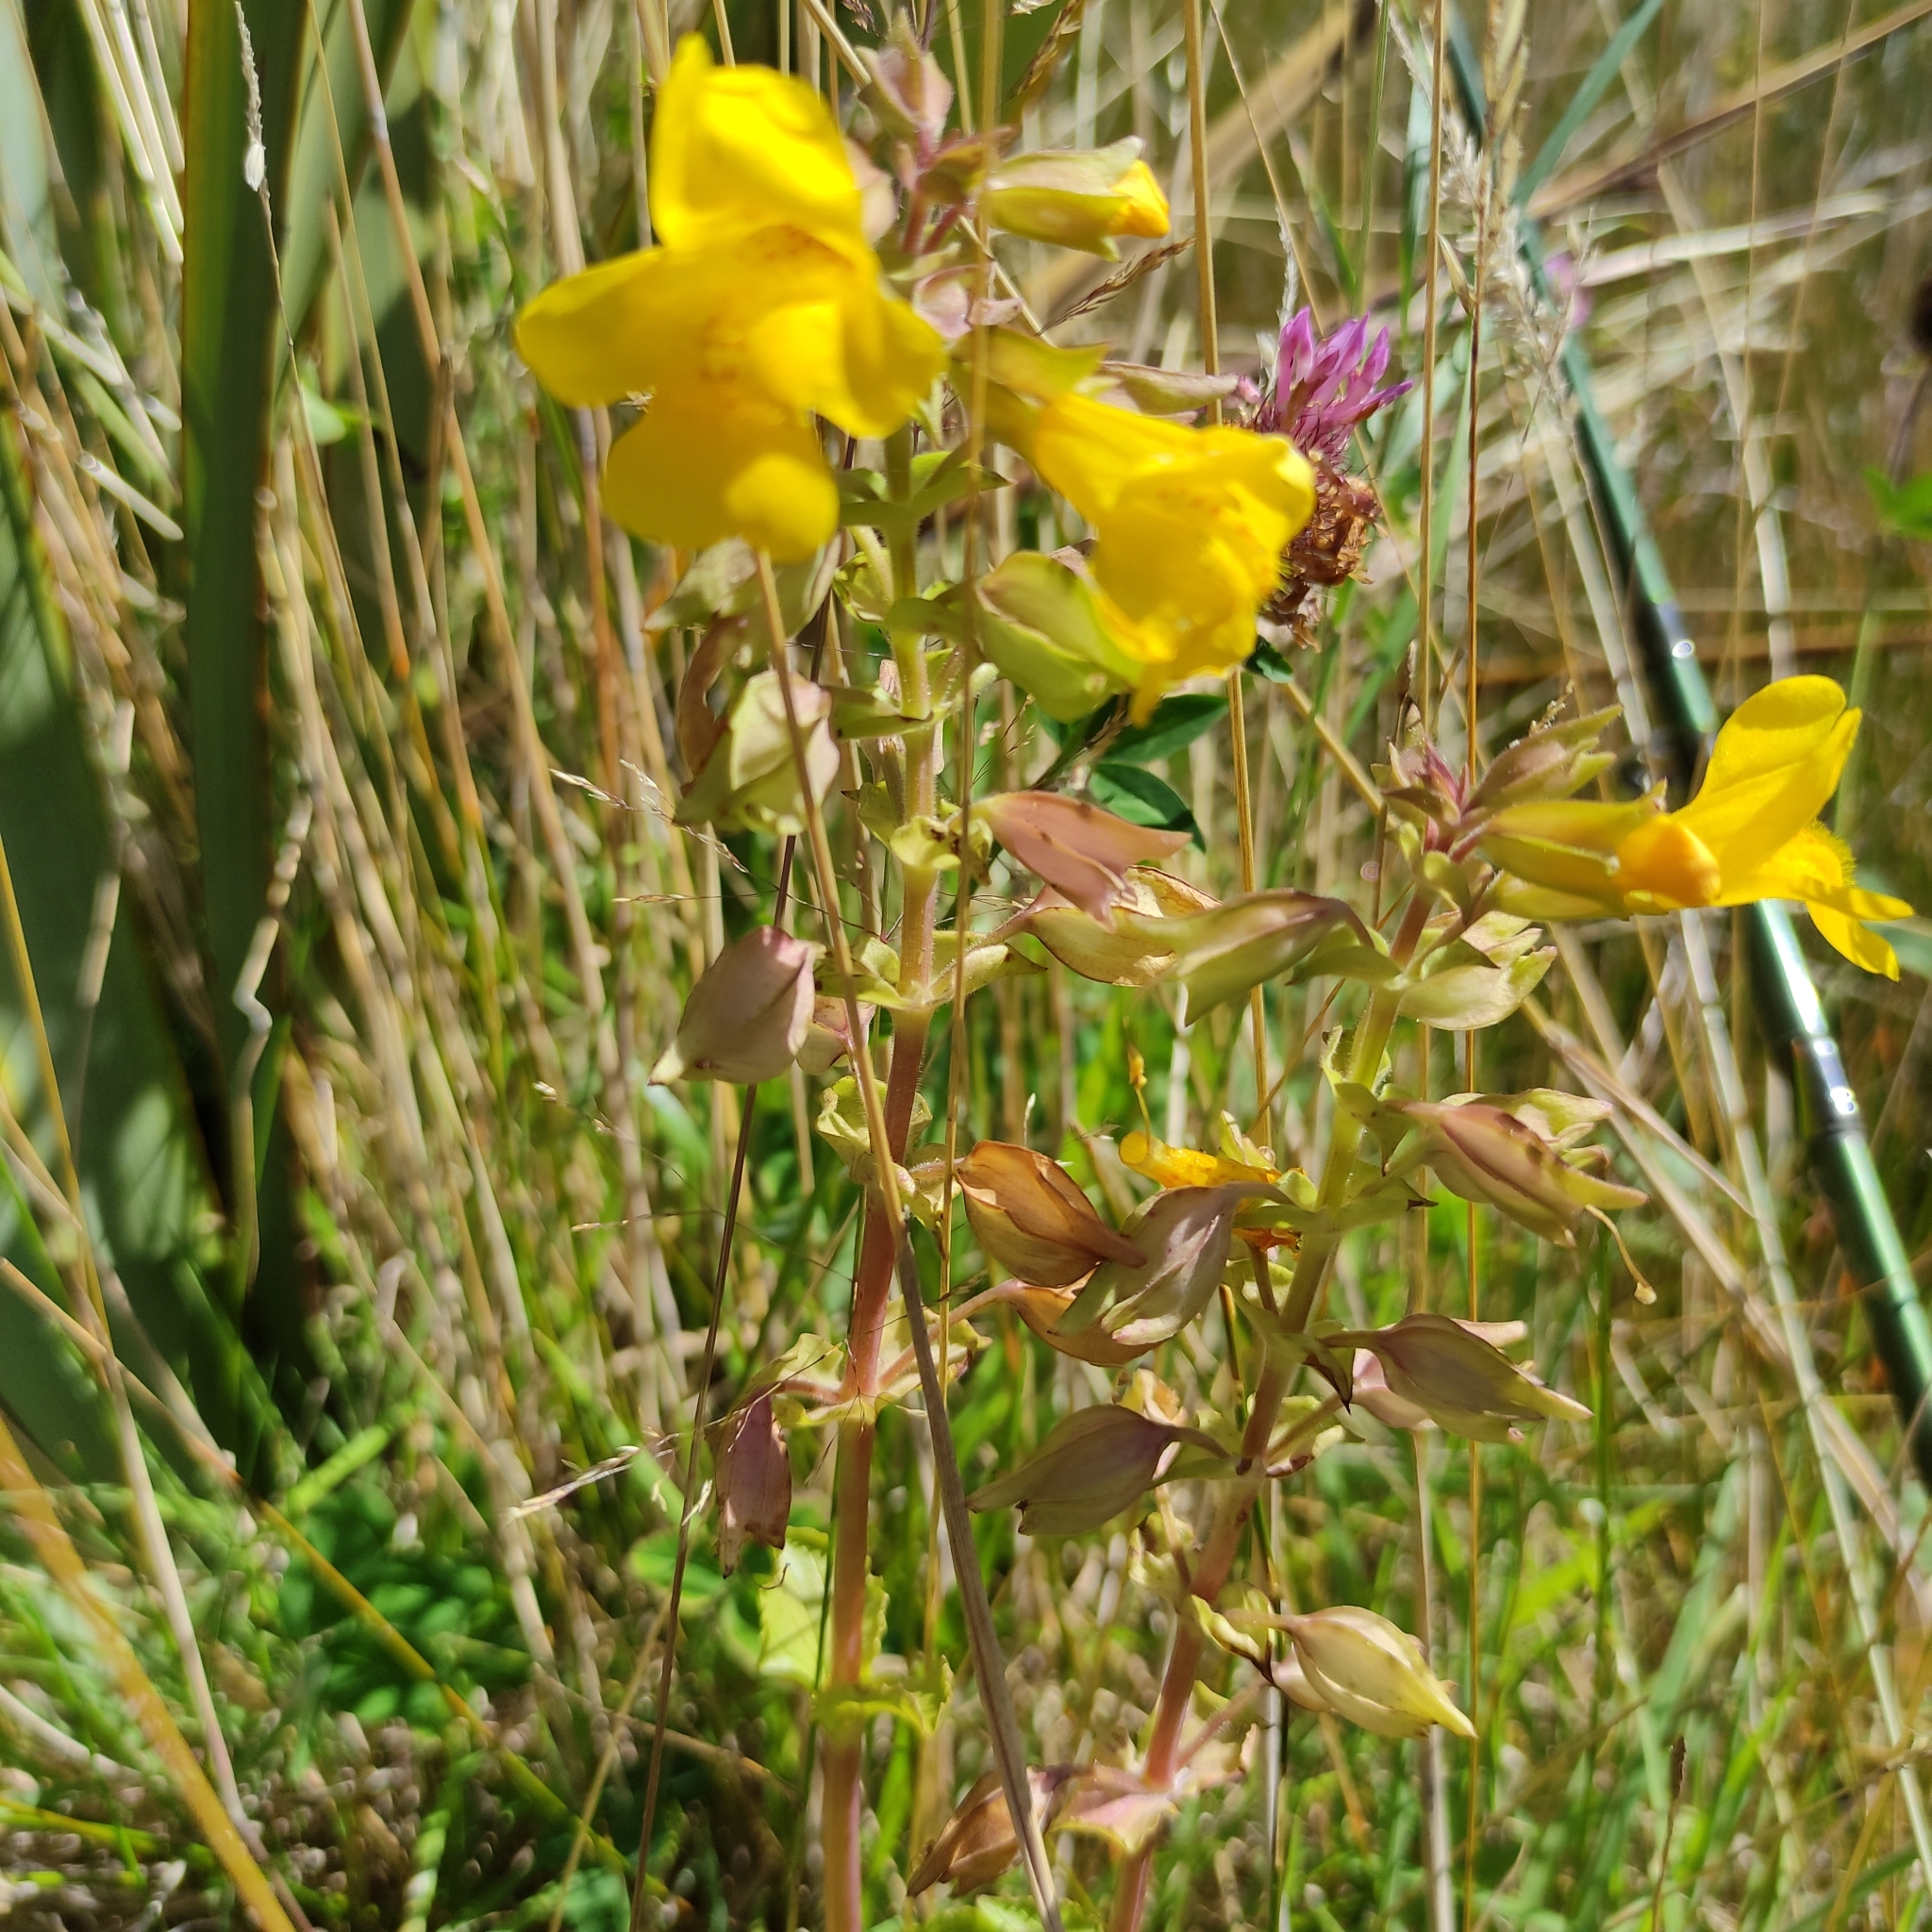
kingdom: Plantae
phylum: Tracheophyta
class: Magnoliopsida
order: Lamiales
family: Phrymaceae
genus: Erythranthe
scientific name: Erythranthe guttata
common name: Monkeyflower
